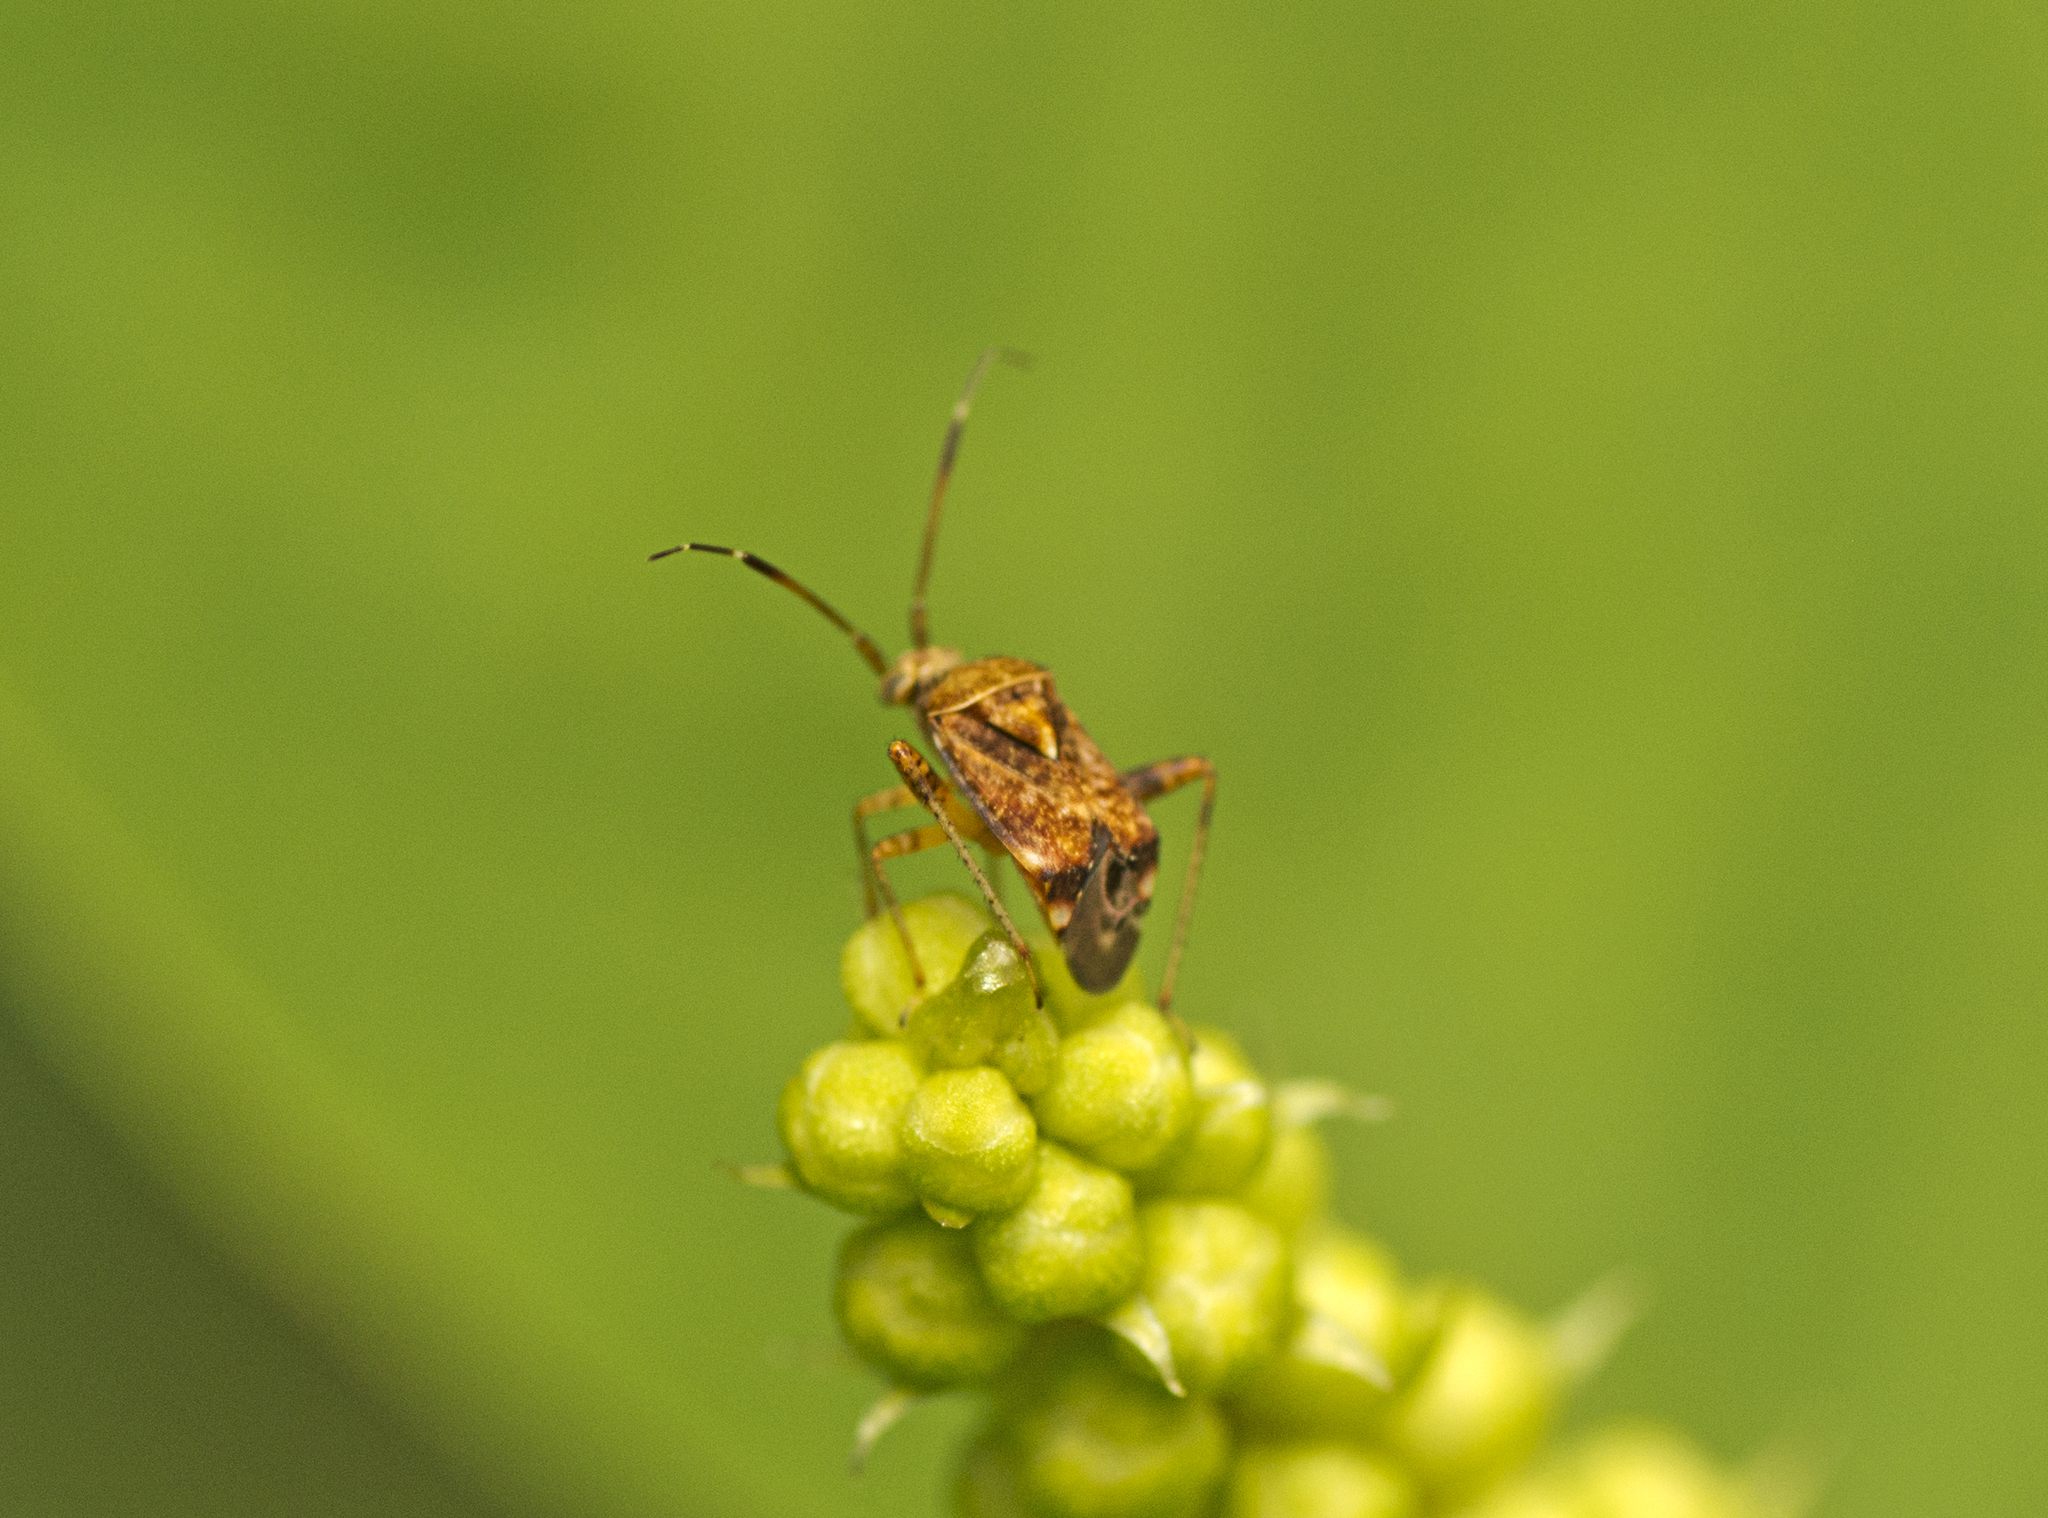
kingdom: Animalia
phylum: Arthropoda
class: Insecta
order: Hemiptera
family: Miridae
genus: Sidnia
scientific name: Sidnia kinbergi
